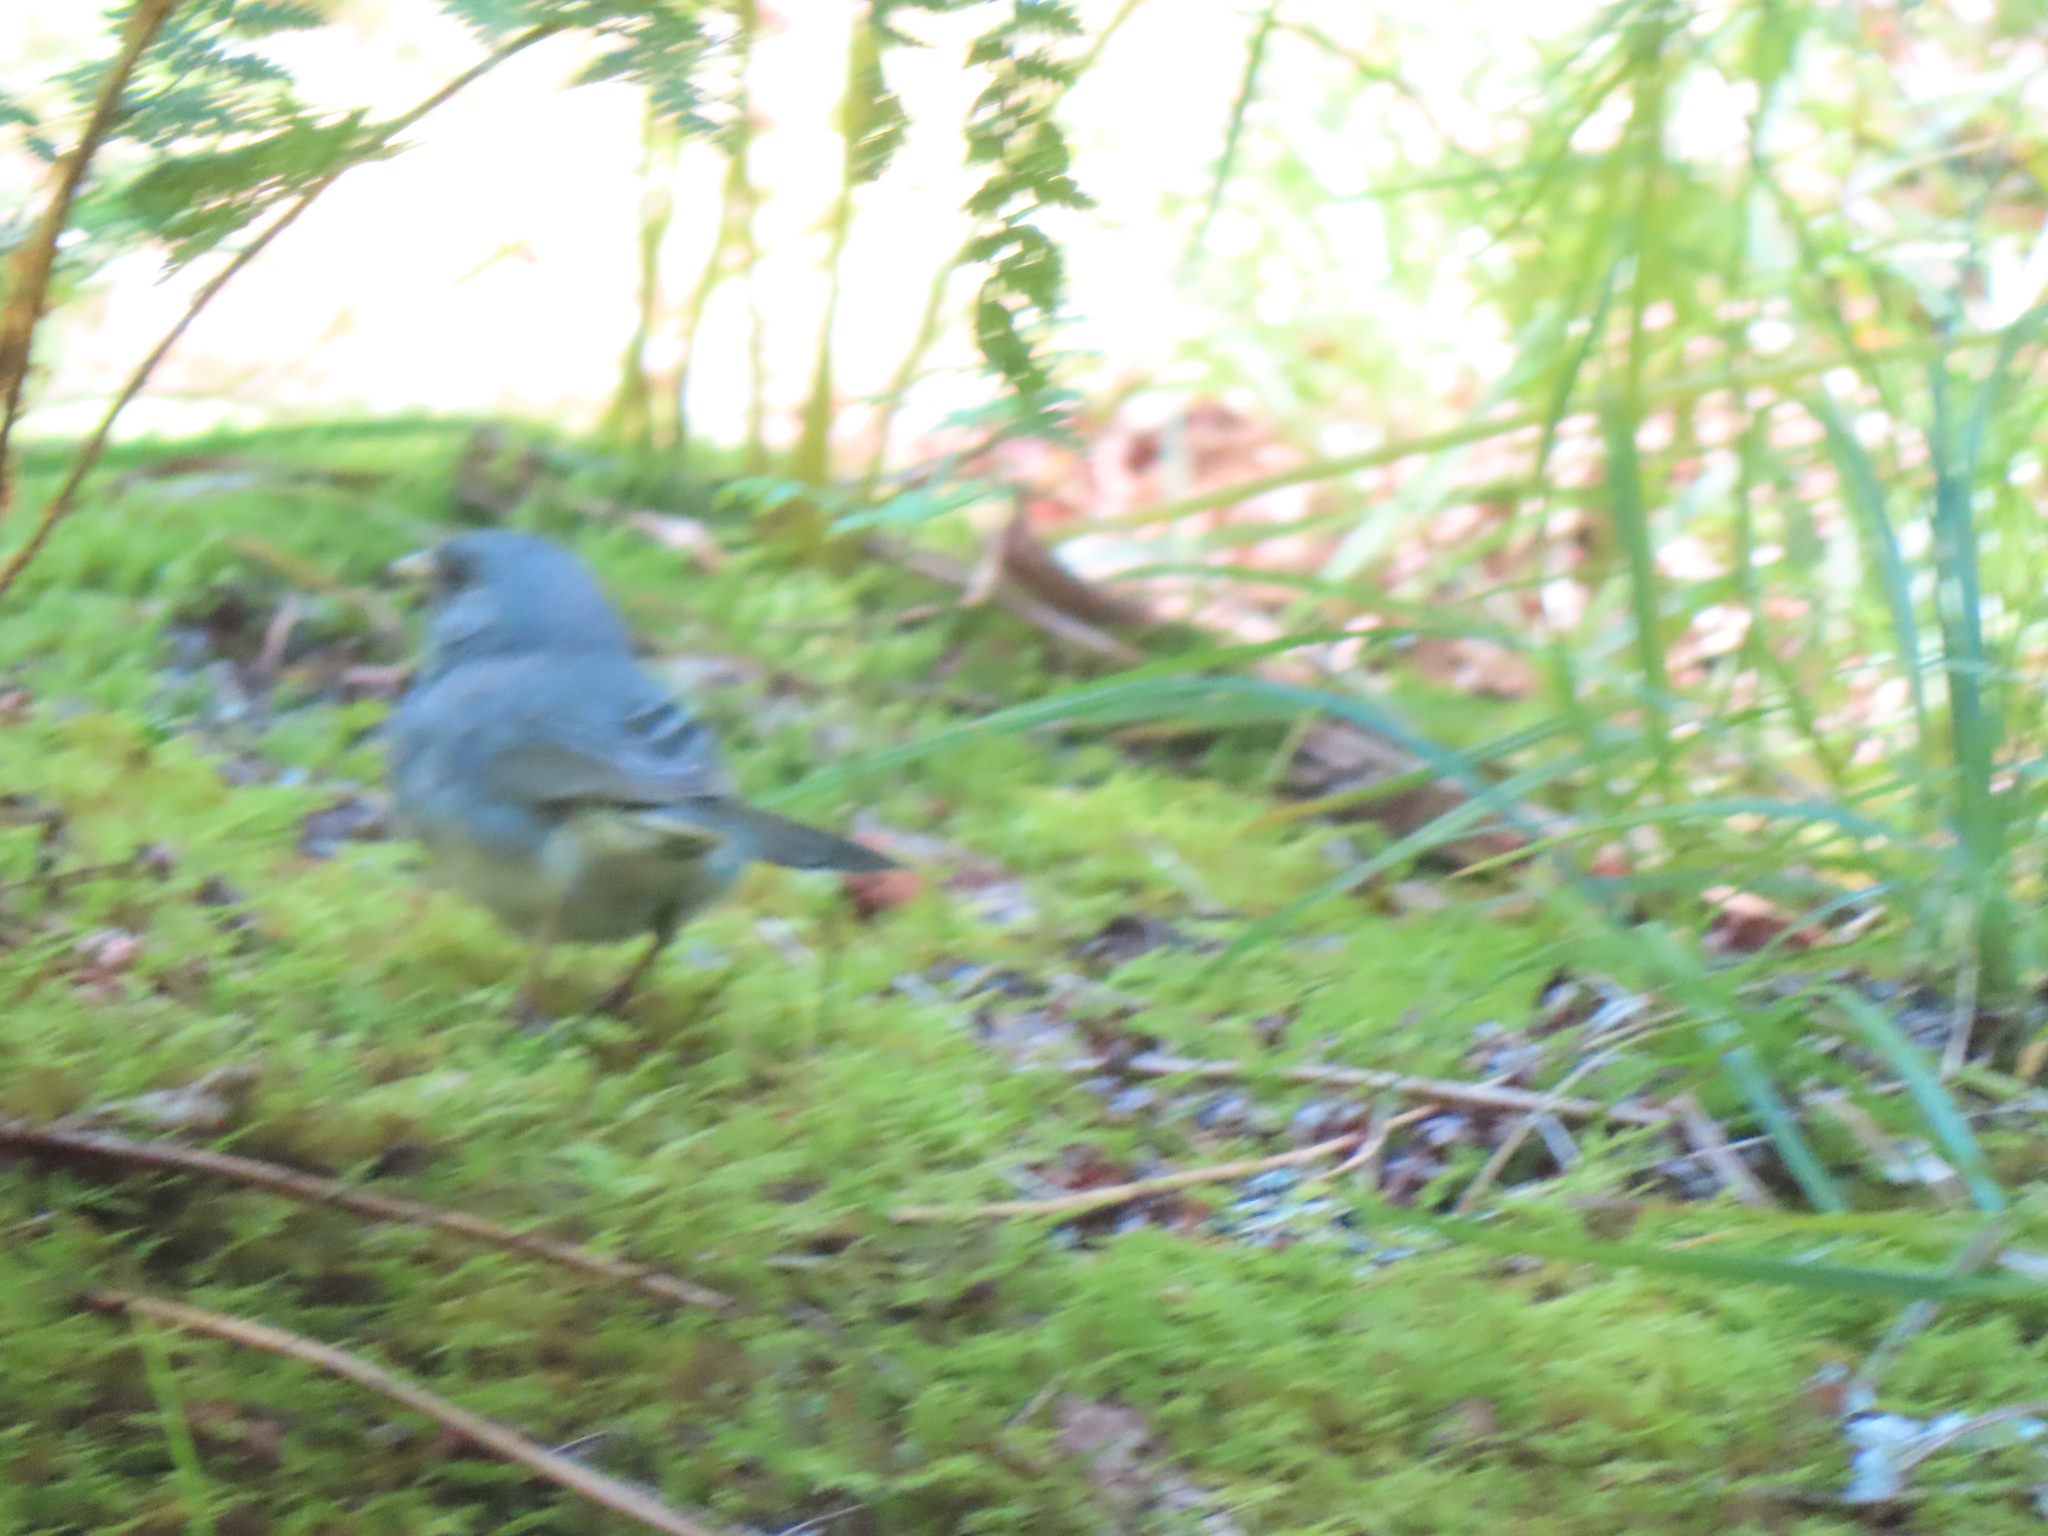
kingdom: Animalia
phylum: Chordata
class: Aves
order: Passeriformes
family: Passerellidae
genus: Junco
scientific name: Junco hyemalis
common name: Dark-eyed junco
